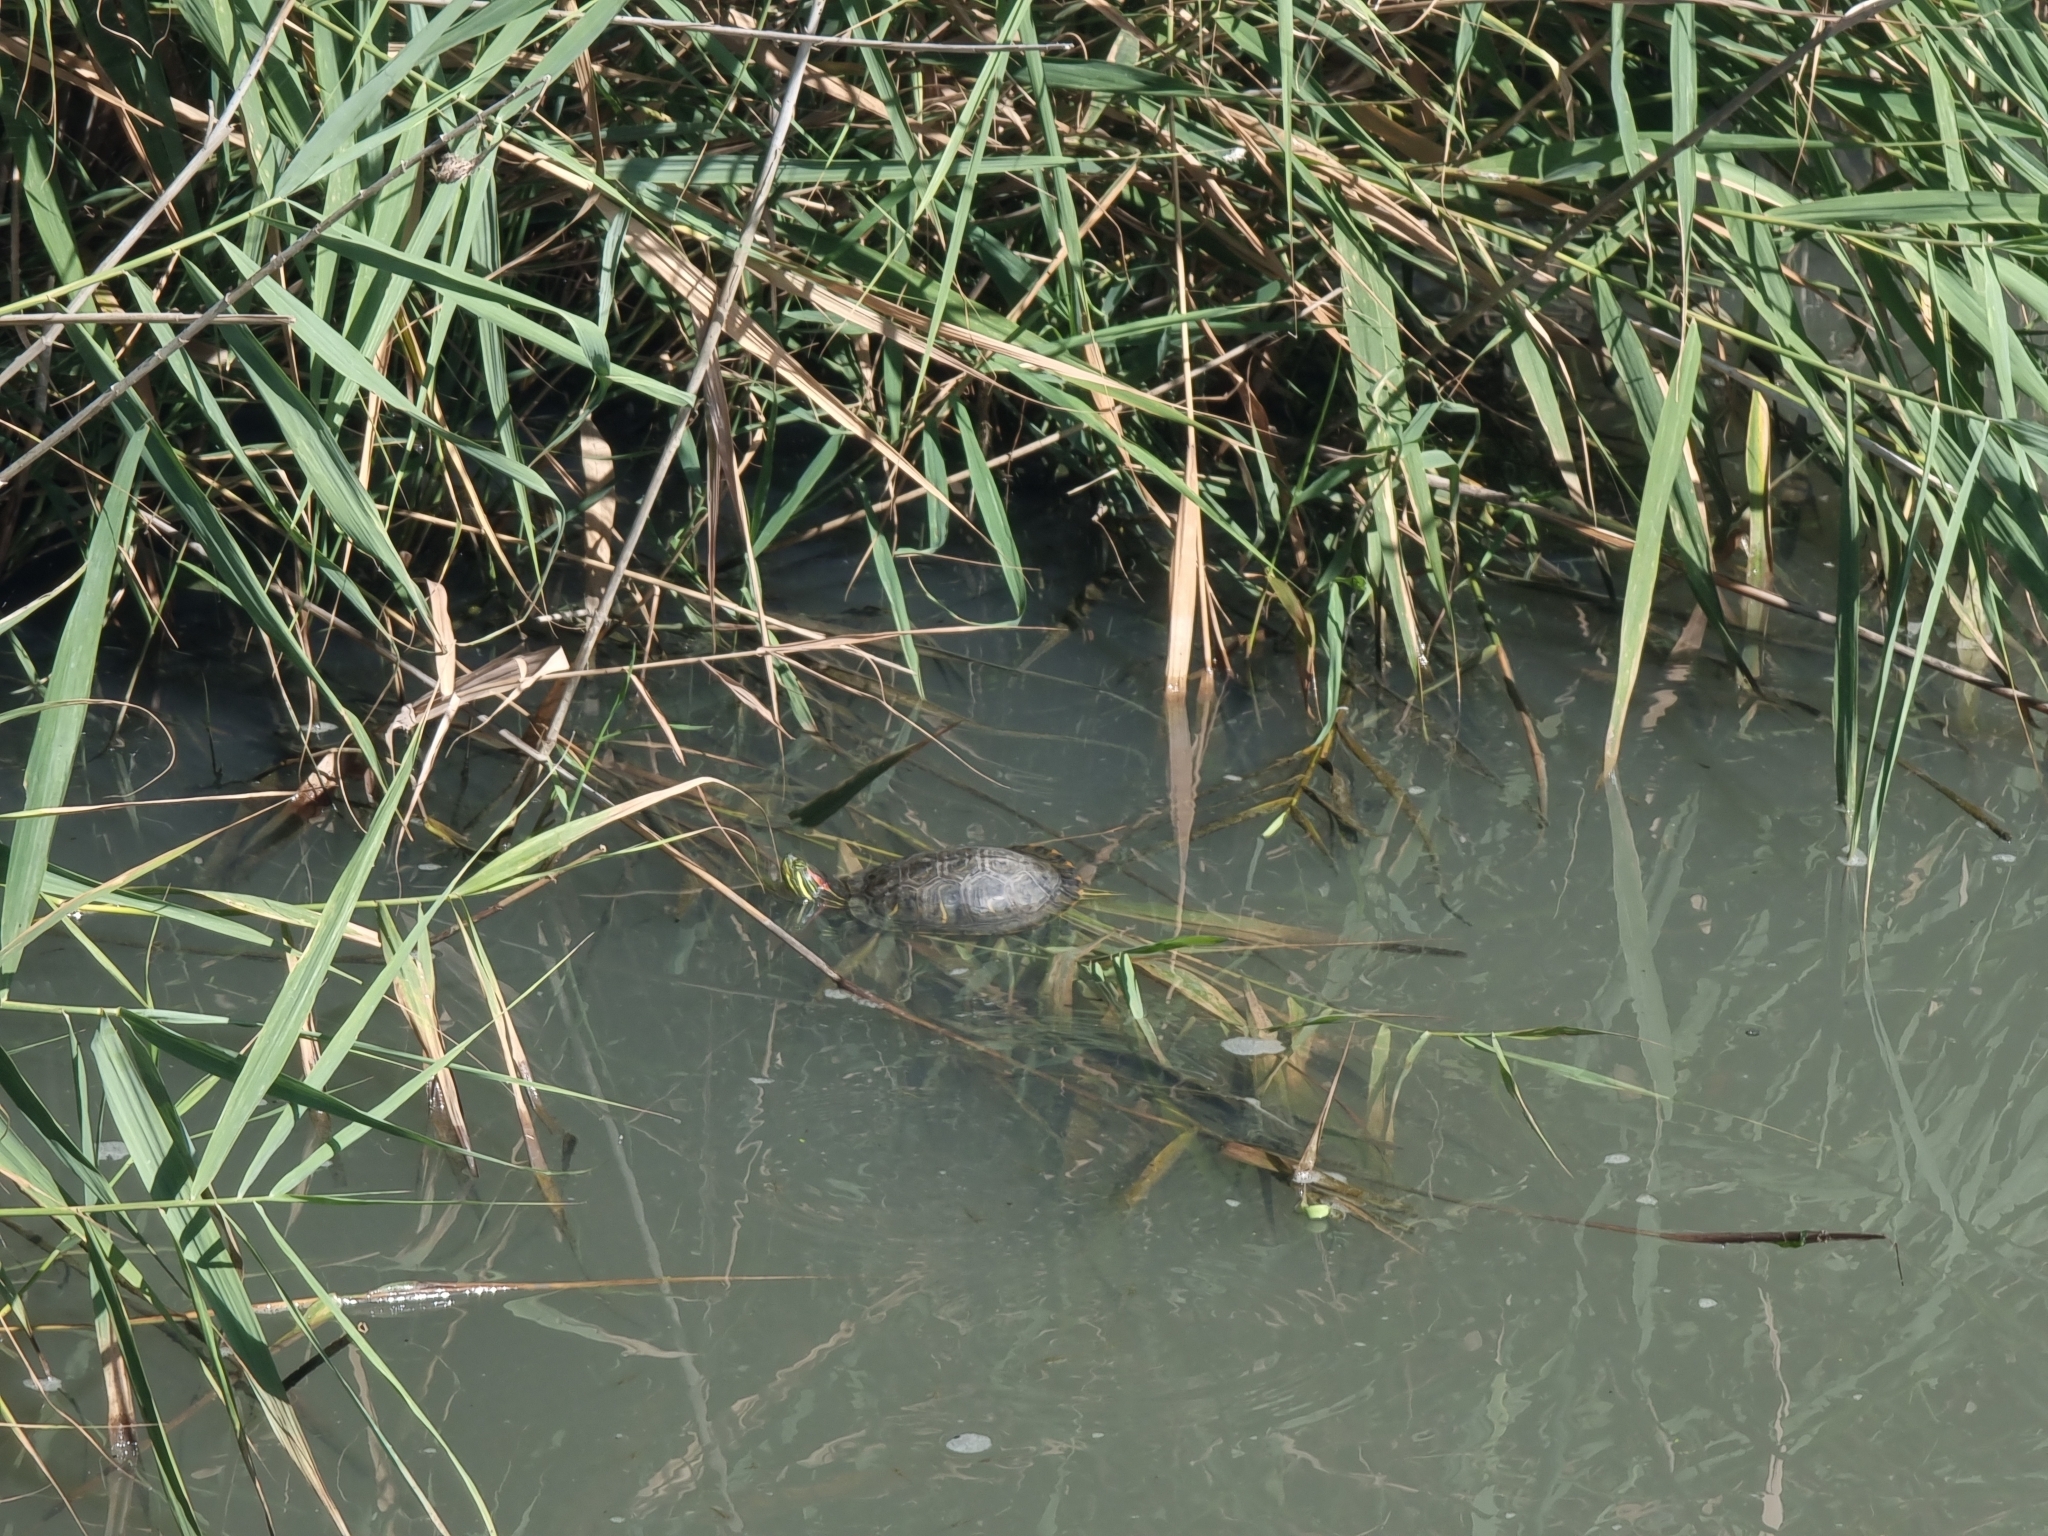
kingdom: Animalia
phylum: Chordata
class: Testudines
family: Emydidae
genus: Trachemys
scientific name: Trachemys scripta
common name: Slider
